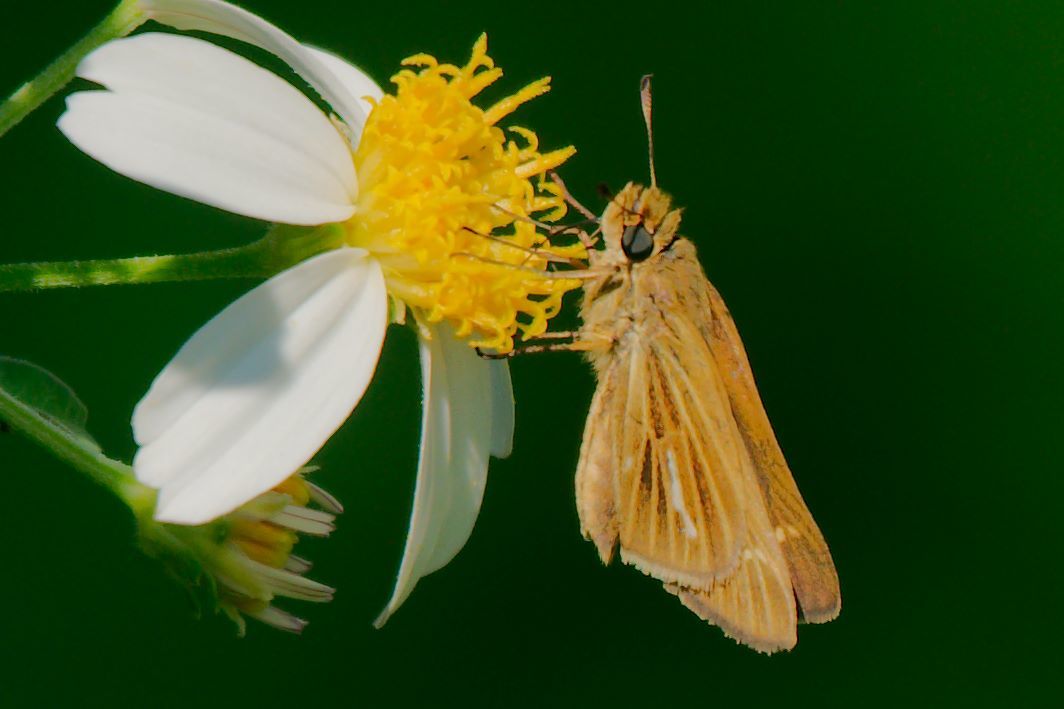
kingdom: Animalia
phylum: Arthropoda
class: Insecta
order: Lepidoptera
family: Hesperiidae
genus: Panoquina
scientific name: Panoquina panoquin
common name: Salt marsh skipper
